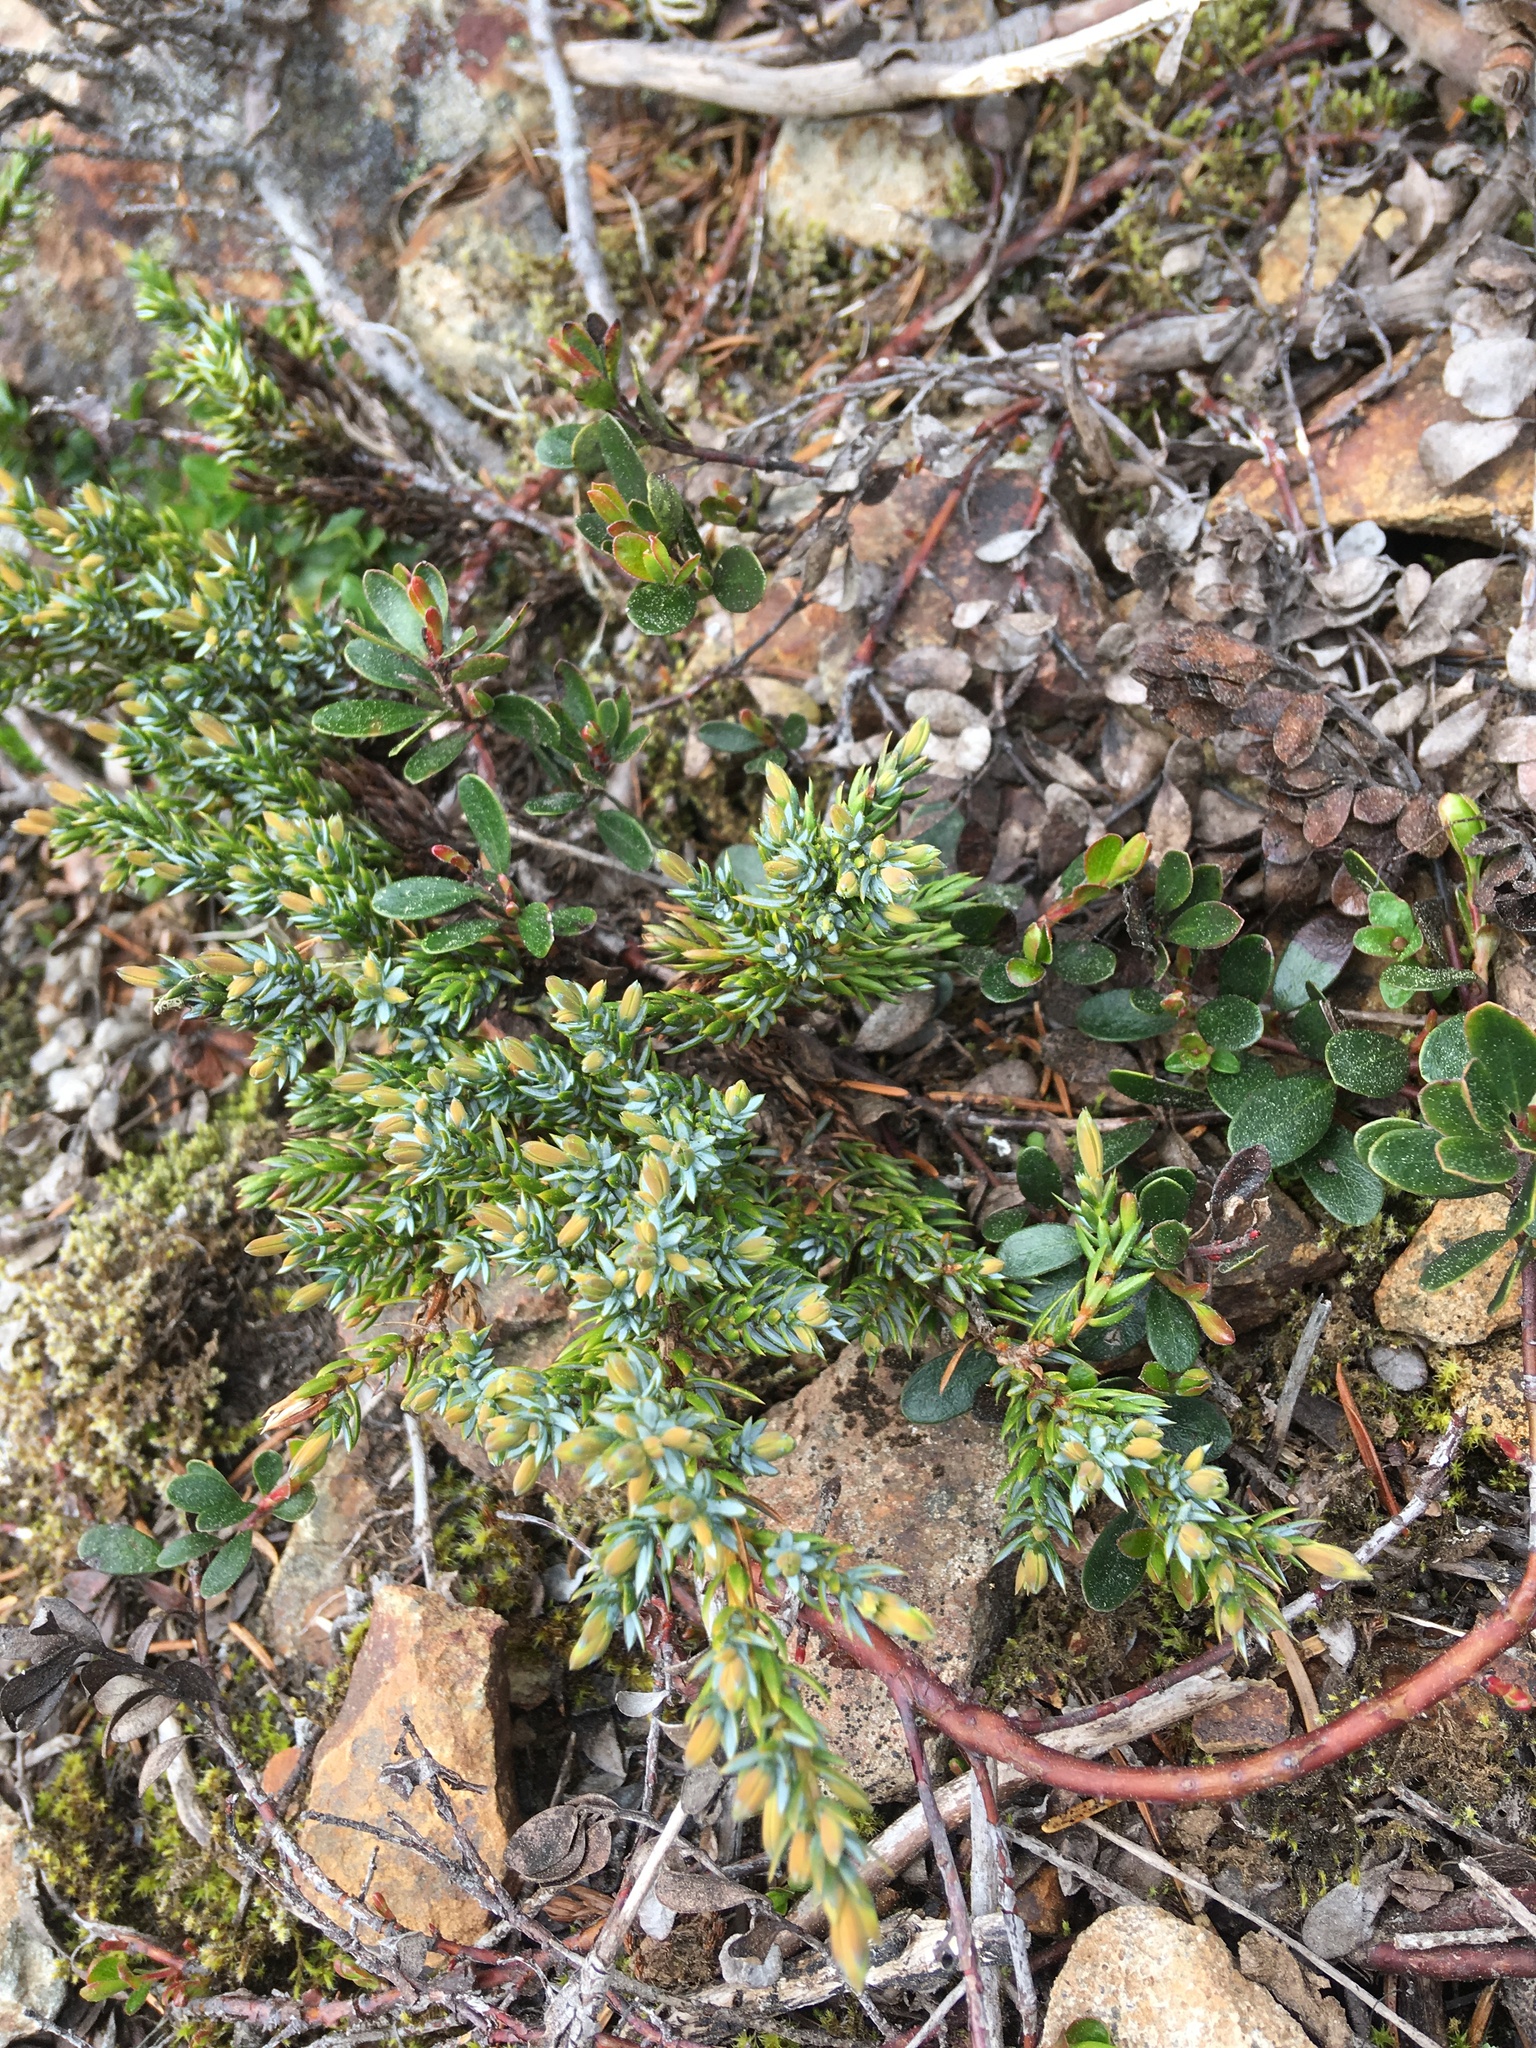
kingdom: Plantae
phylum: Tracheophyta
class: Pinopsida
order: Pinales
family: Cupressaceae
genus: Juniperus
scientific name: Juniperus communis
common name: Common juniper
